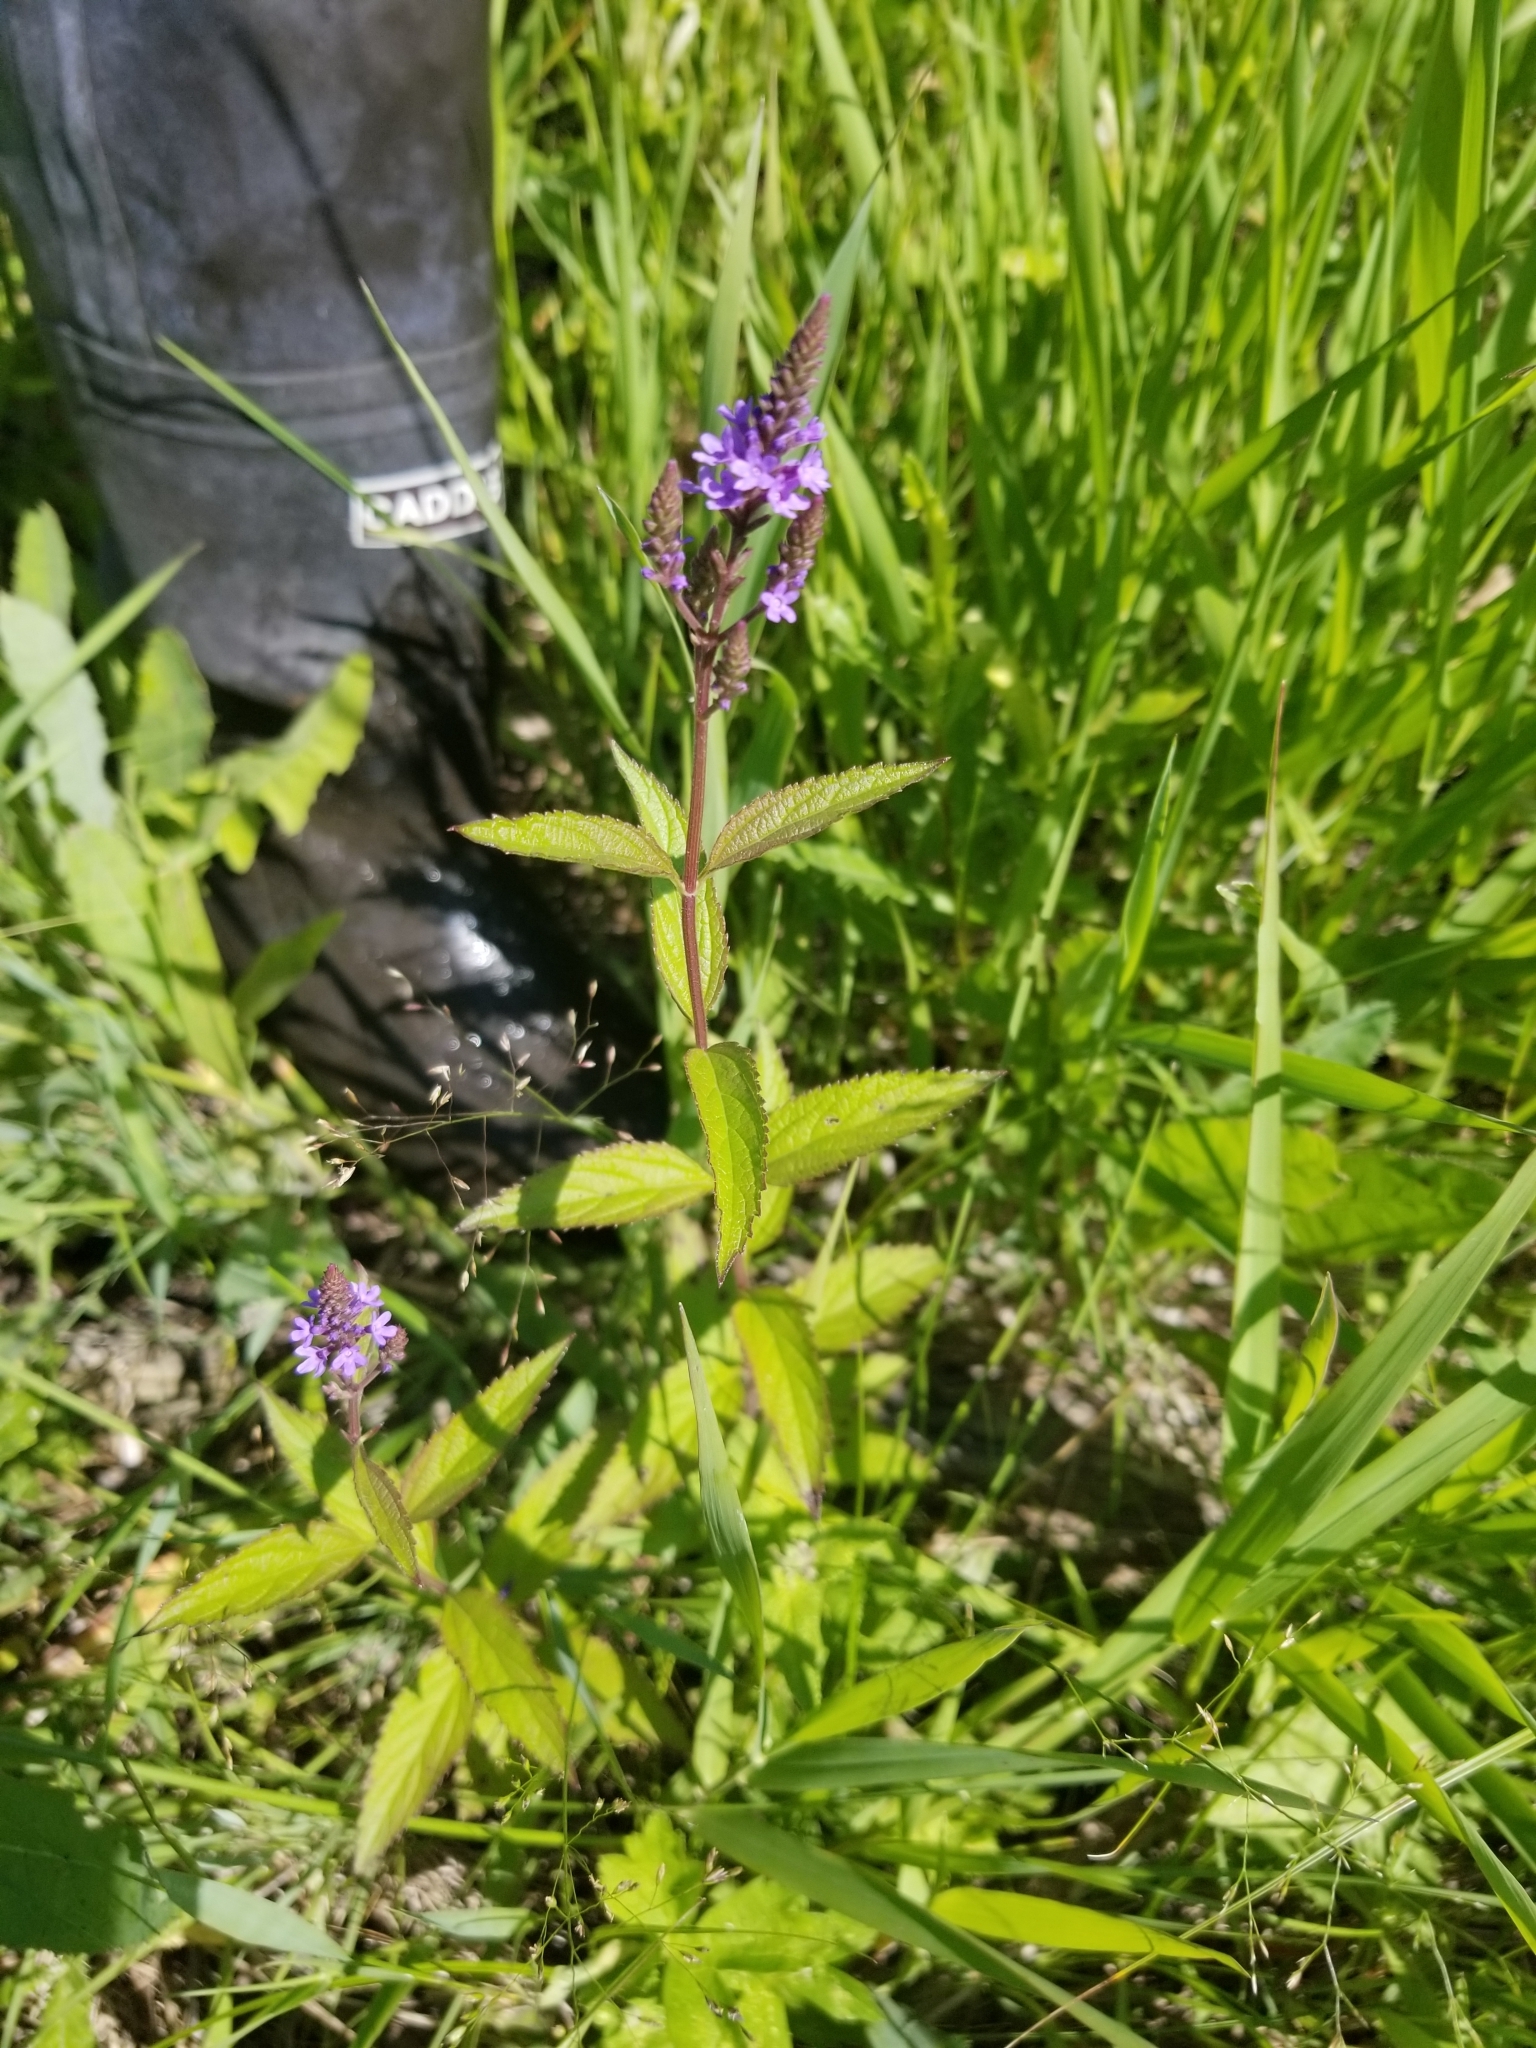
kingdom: Plantae
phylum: Tracheophyta
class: Magnoliopsida
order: Lamiales
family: Verbenaceae
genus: Verbena
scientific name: Verbena hastata
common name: American blue vervain
